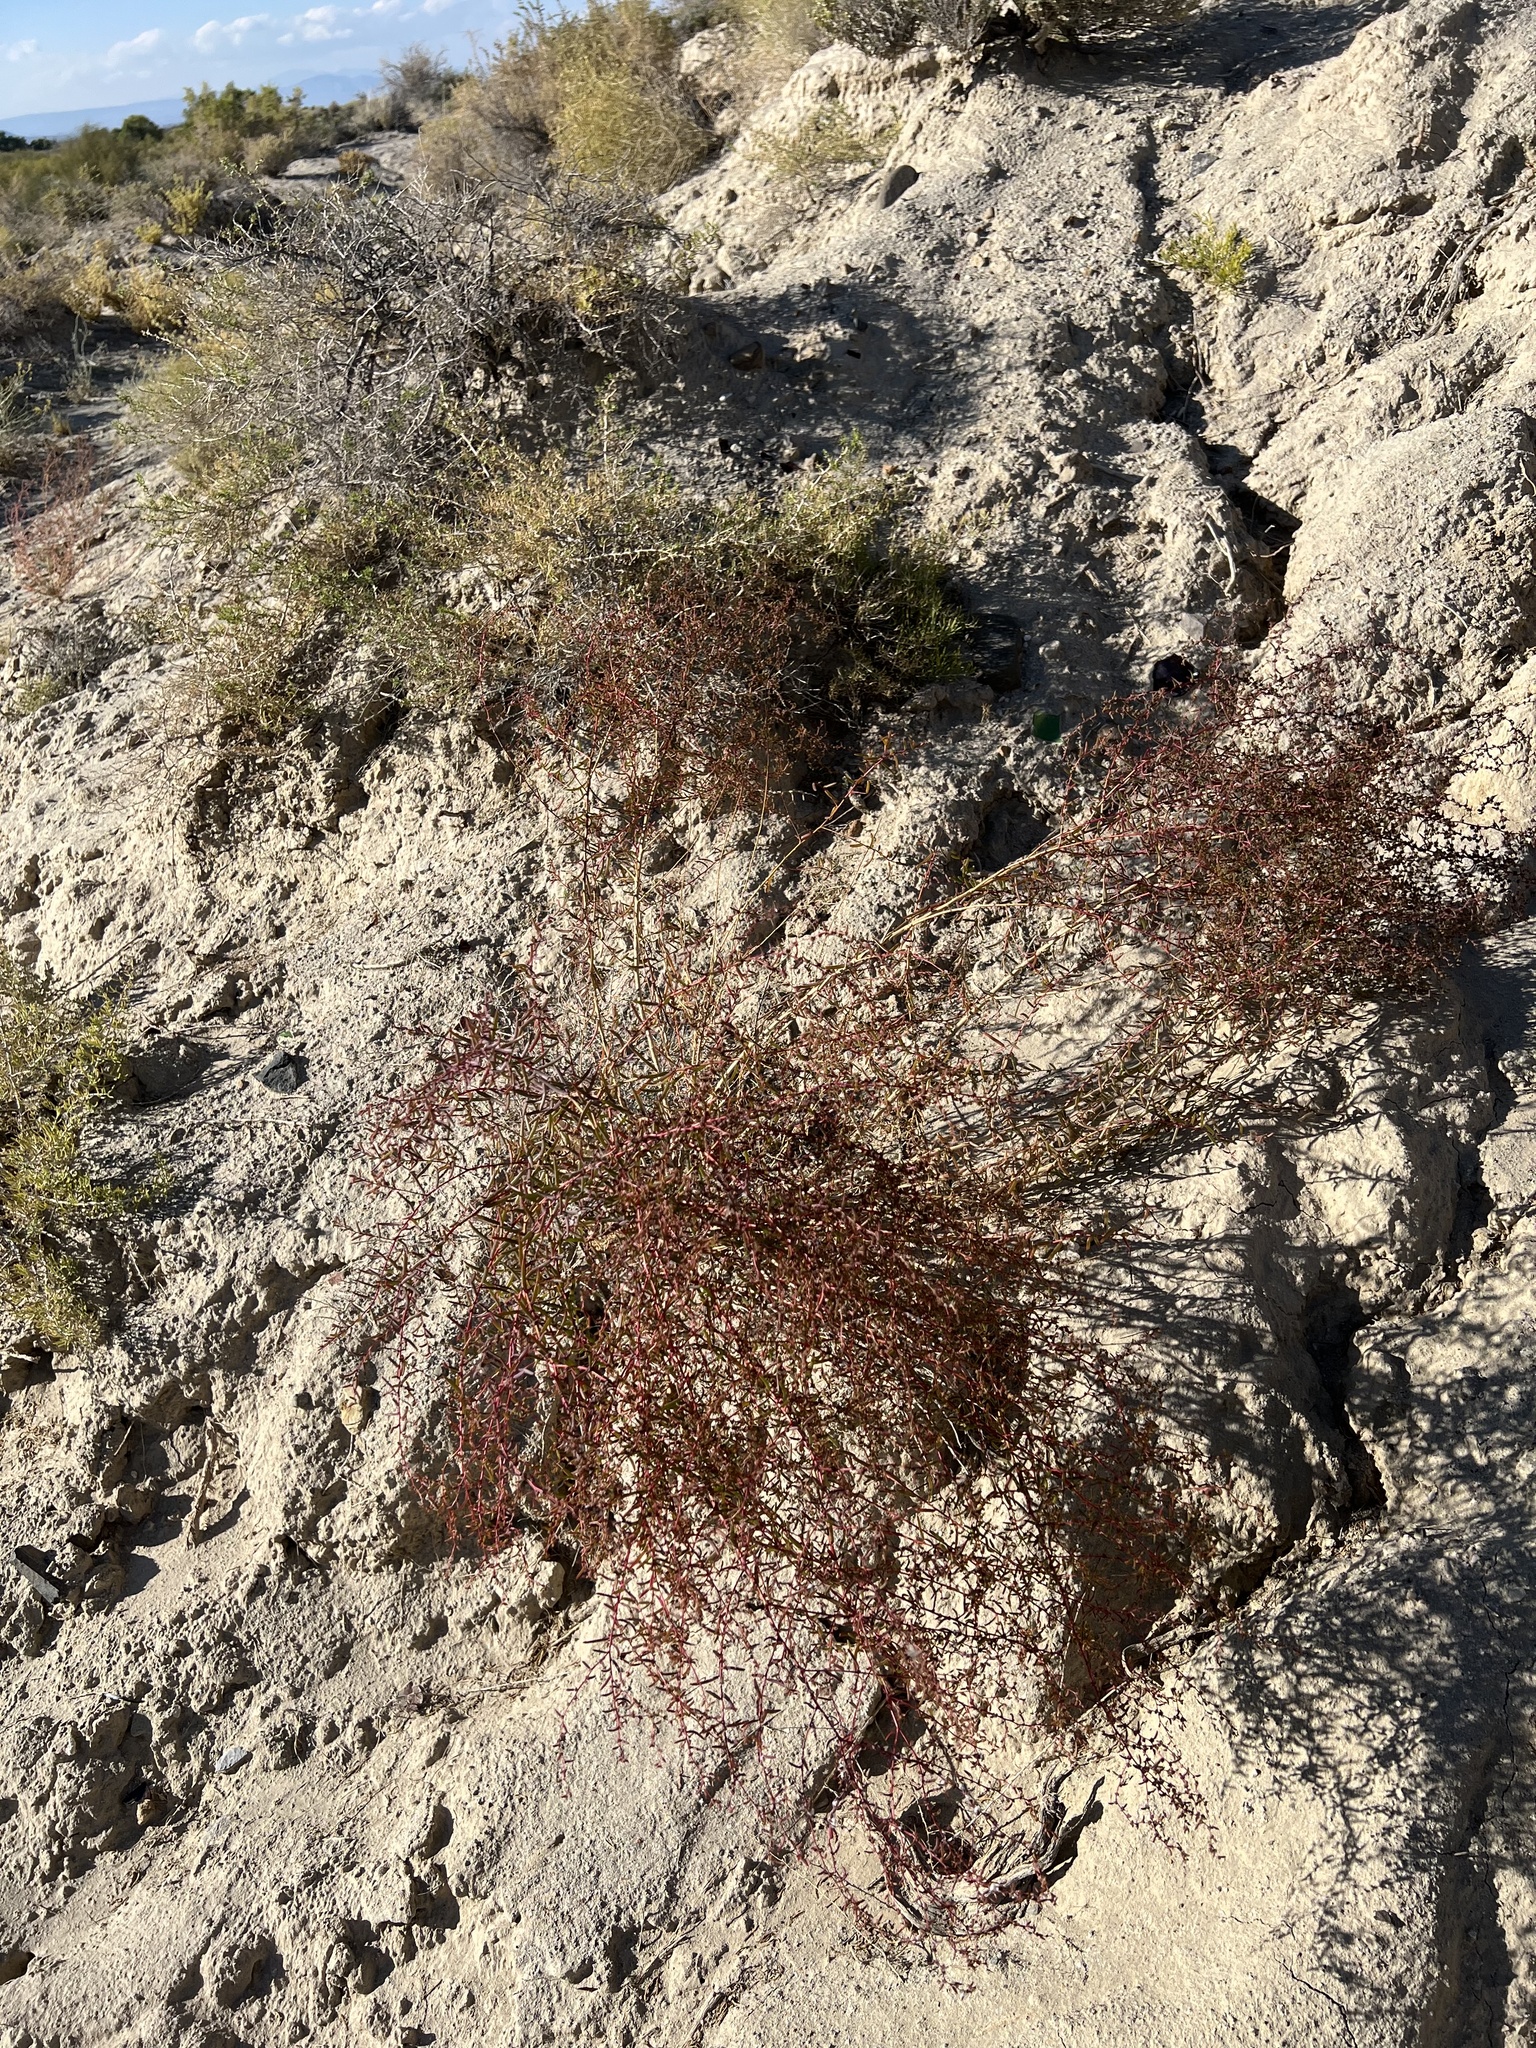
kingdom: Plantae
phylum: Tracheophyta
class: Magnoliopsida
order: Caryophyllales
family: Amaranthaceae
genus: Suaeda
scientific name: Suaeda nigra
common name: Bush seepweed
